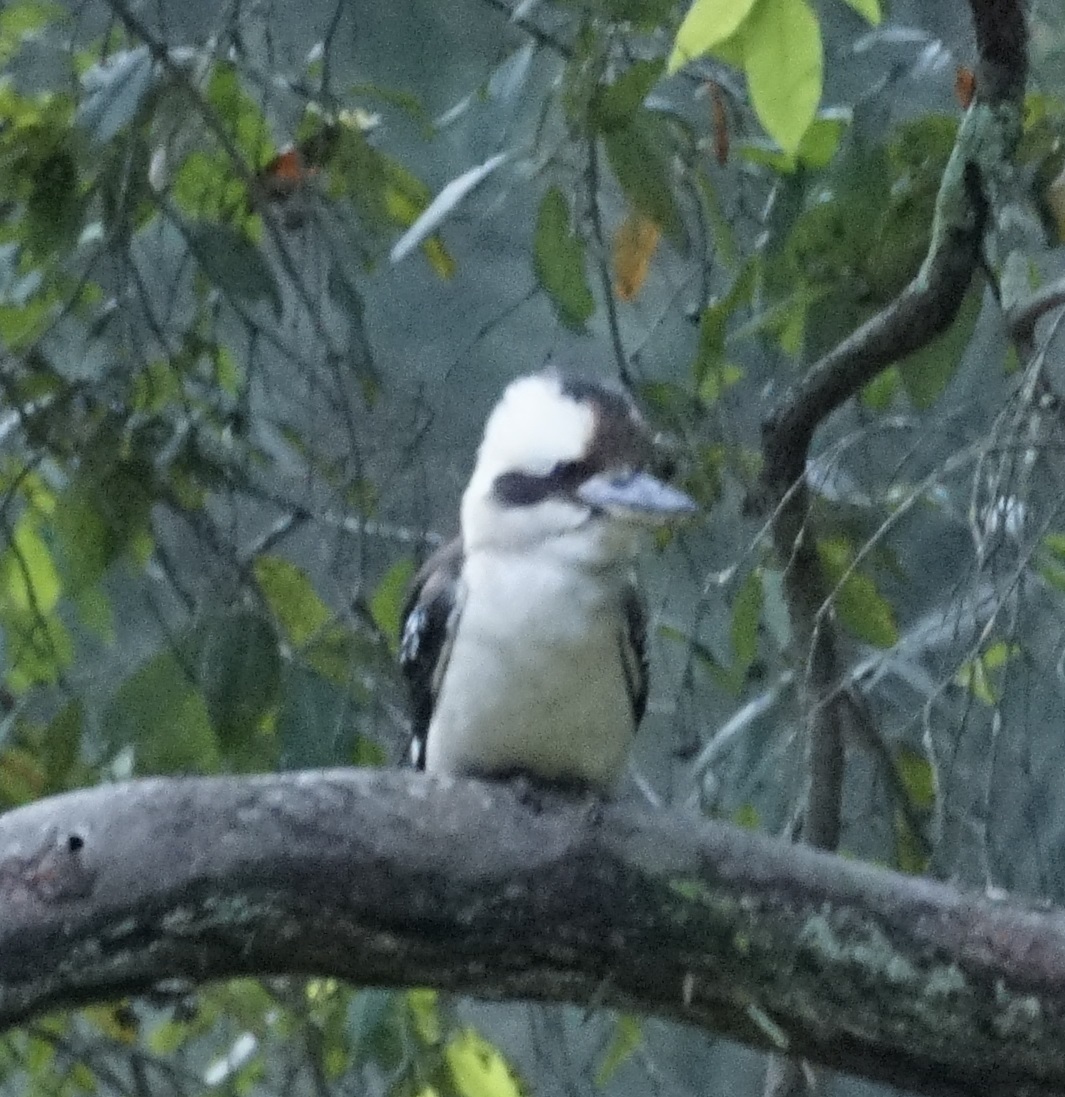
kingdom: Animalia
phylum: Chordata
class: Aves
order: Coraciiformes
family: Alcedinidae
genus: Dacelo
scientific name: Dacelo novaeguineae
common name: Laughing kookaburra
